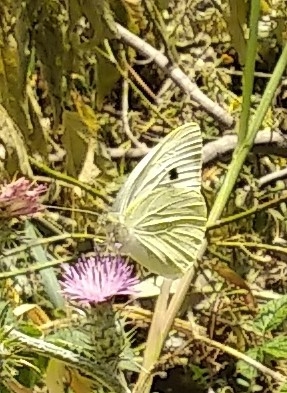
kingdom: Animalia
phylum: Arthropoda
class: Insecta
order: Lepidoptera
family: Pieridae
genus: Pieris
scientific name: Pieris brassicae
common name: Large white
